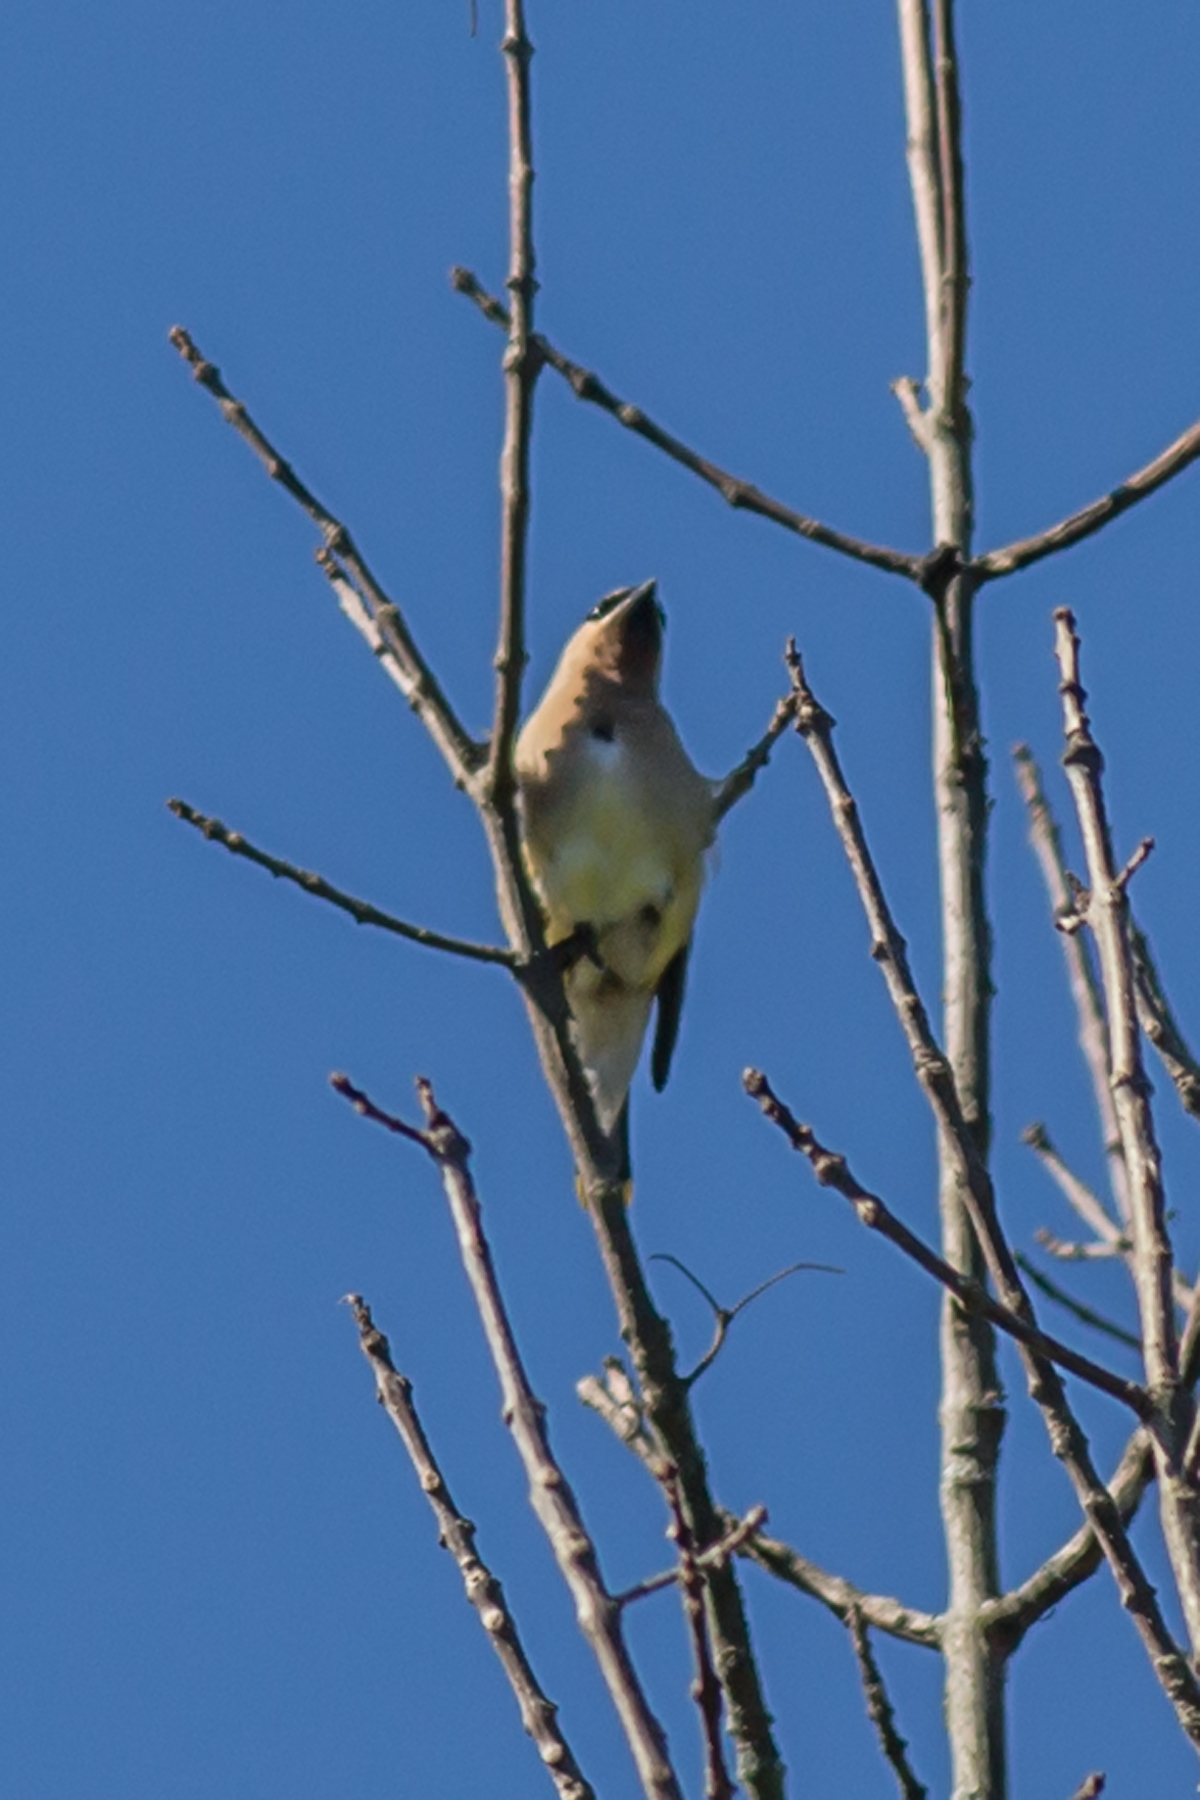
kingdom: Animalia
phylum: Chordata
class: Aves
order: Passeriformes
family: Bombycillidae
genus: Bombycilla
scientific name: Bombycilla cedrorum
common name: Cedar waxwing
